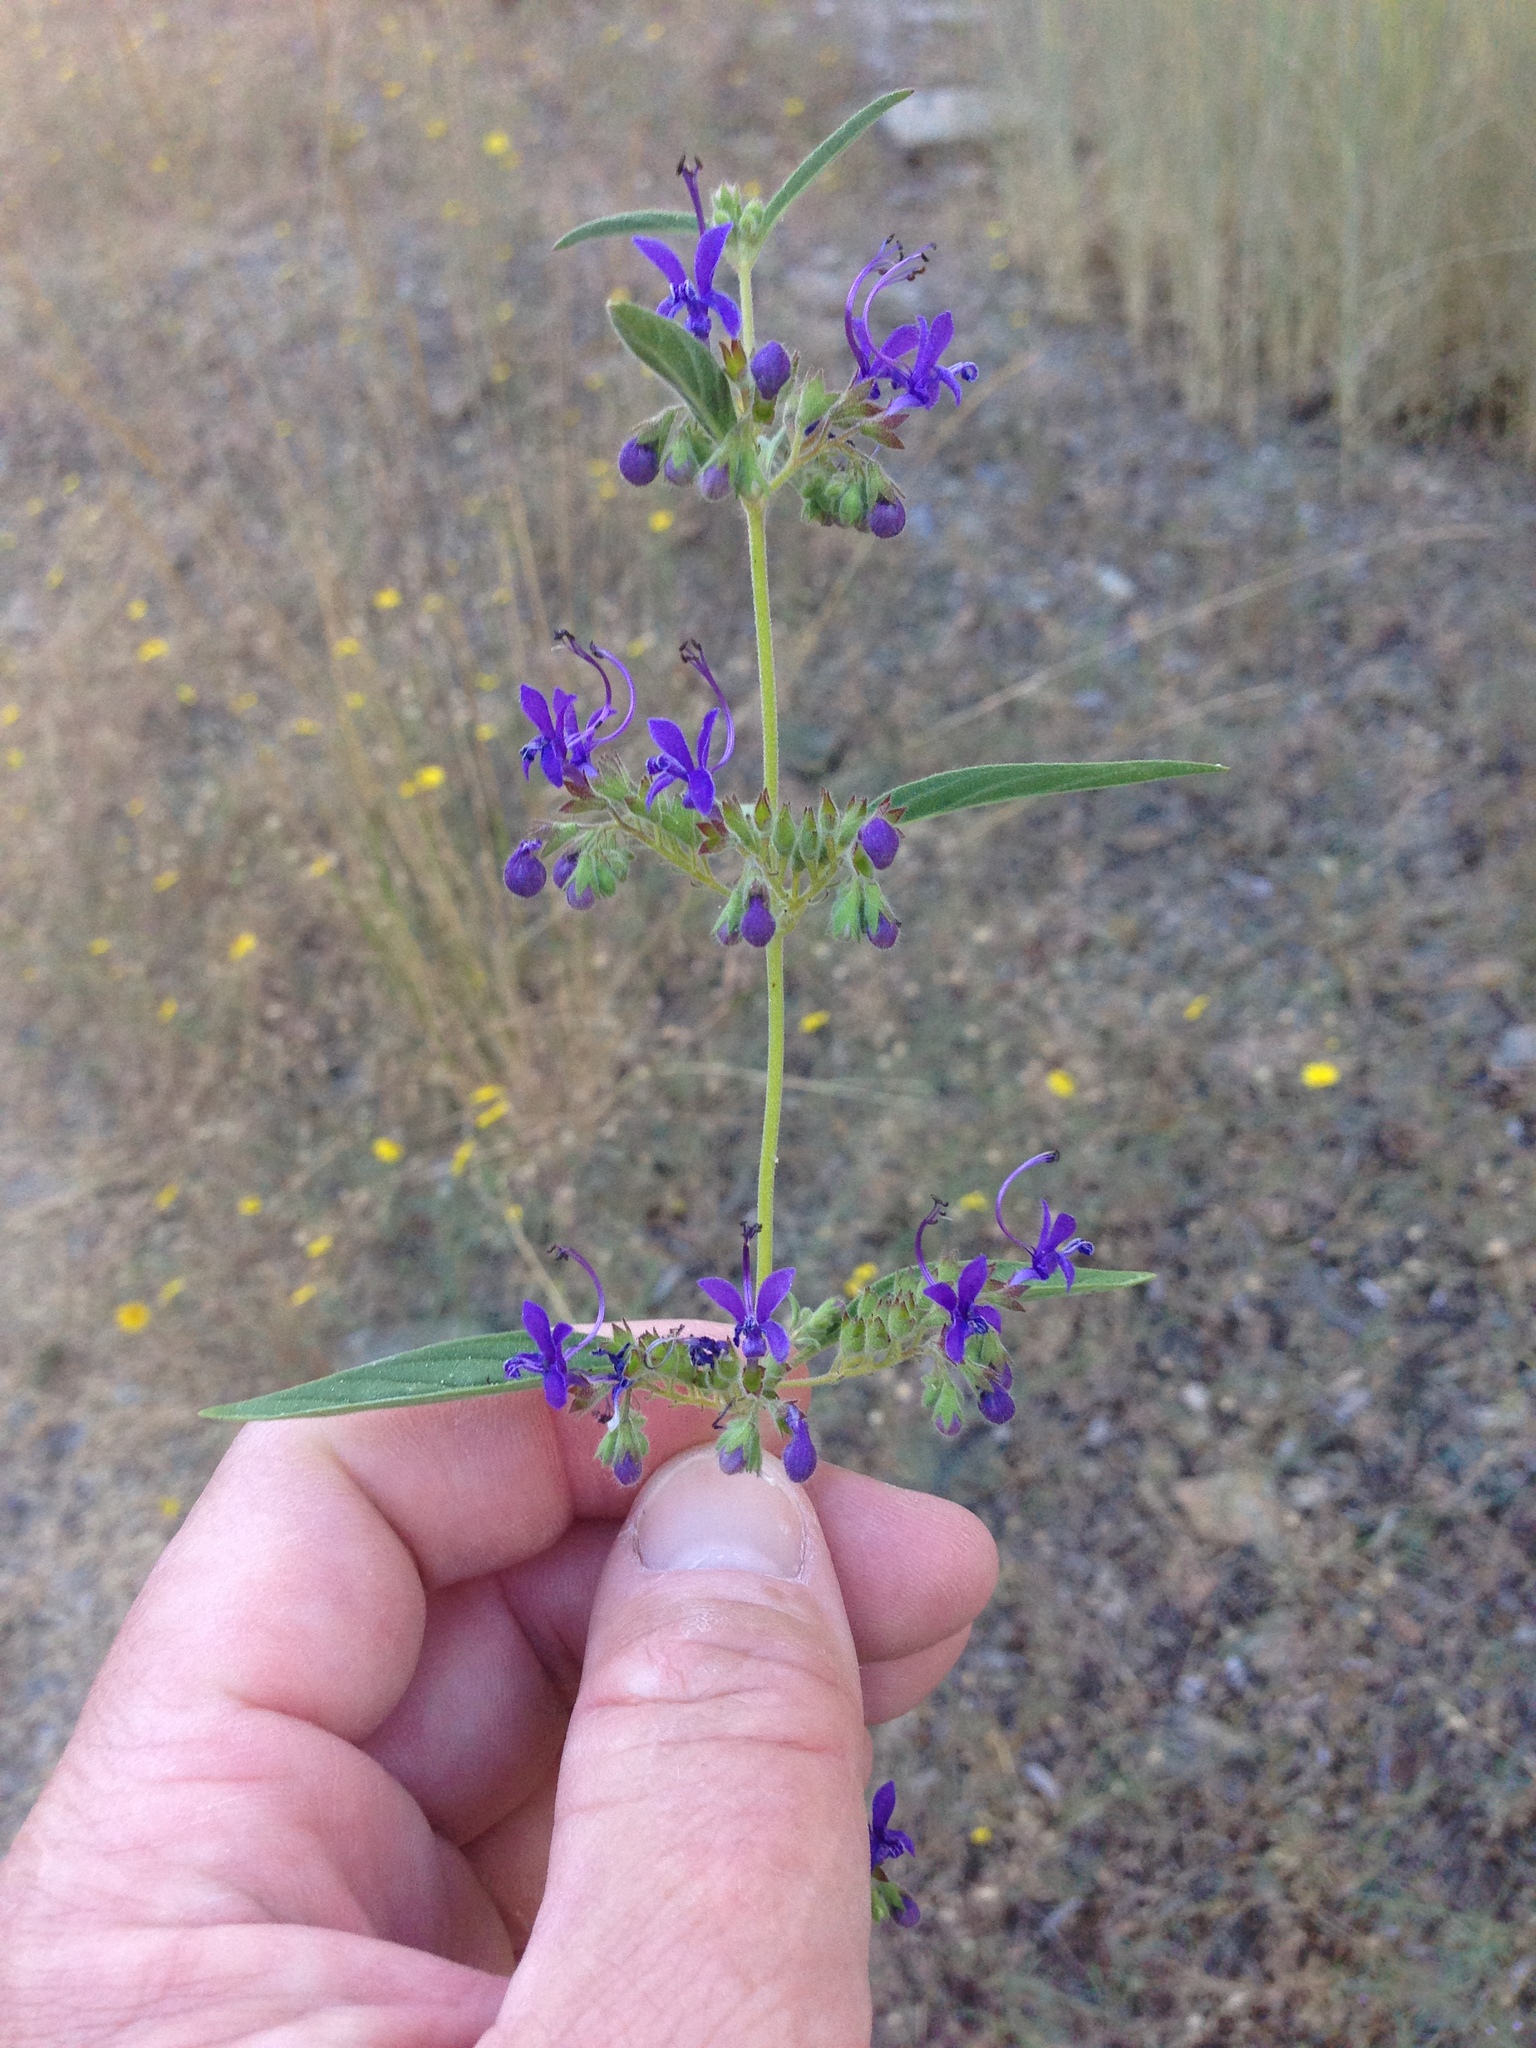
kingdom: Plantae
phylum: Tracheophyta
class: Magnoliopsida
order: Lamiales
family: Lamiaceae
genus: Trichostema
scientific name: Trichostema laxum
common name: Turpentine weed
